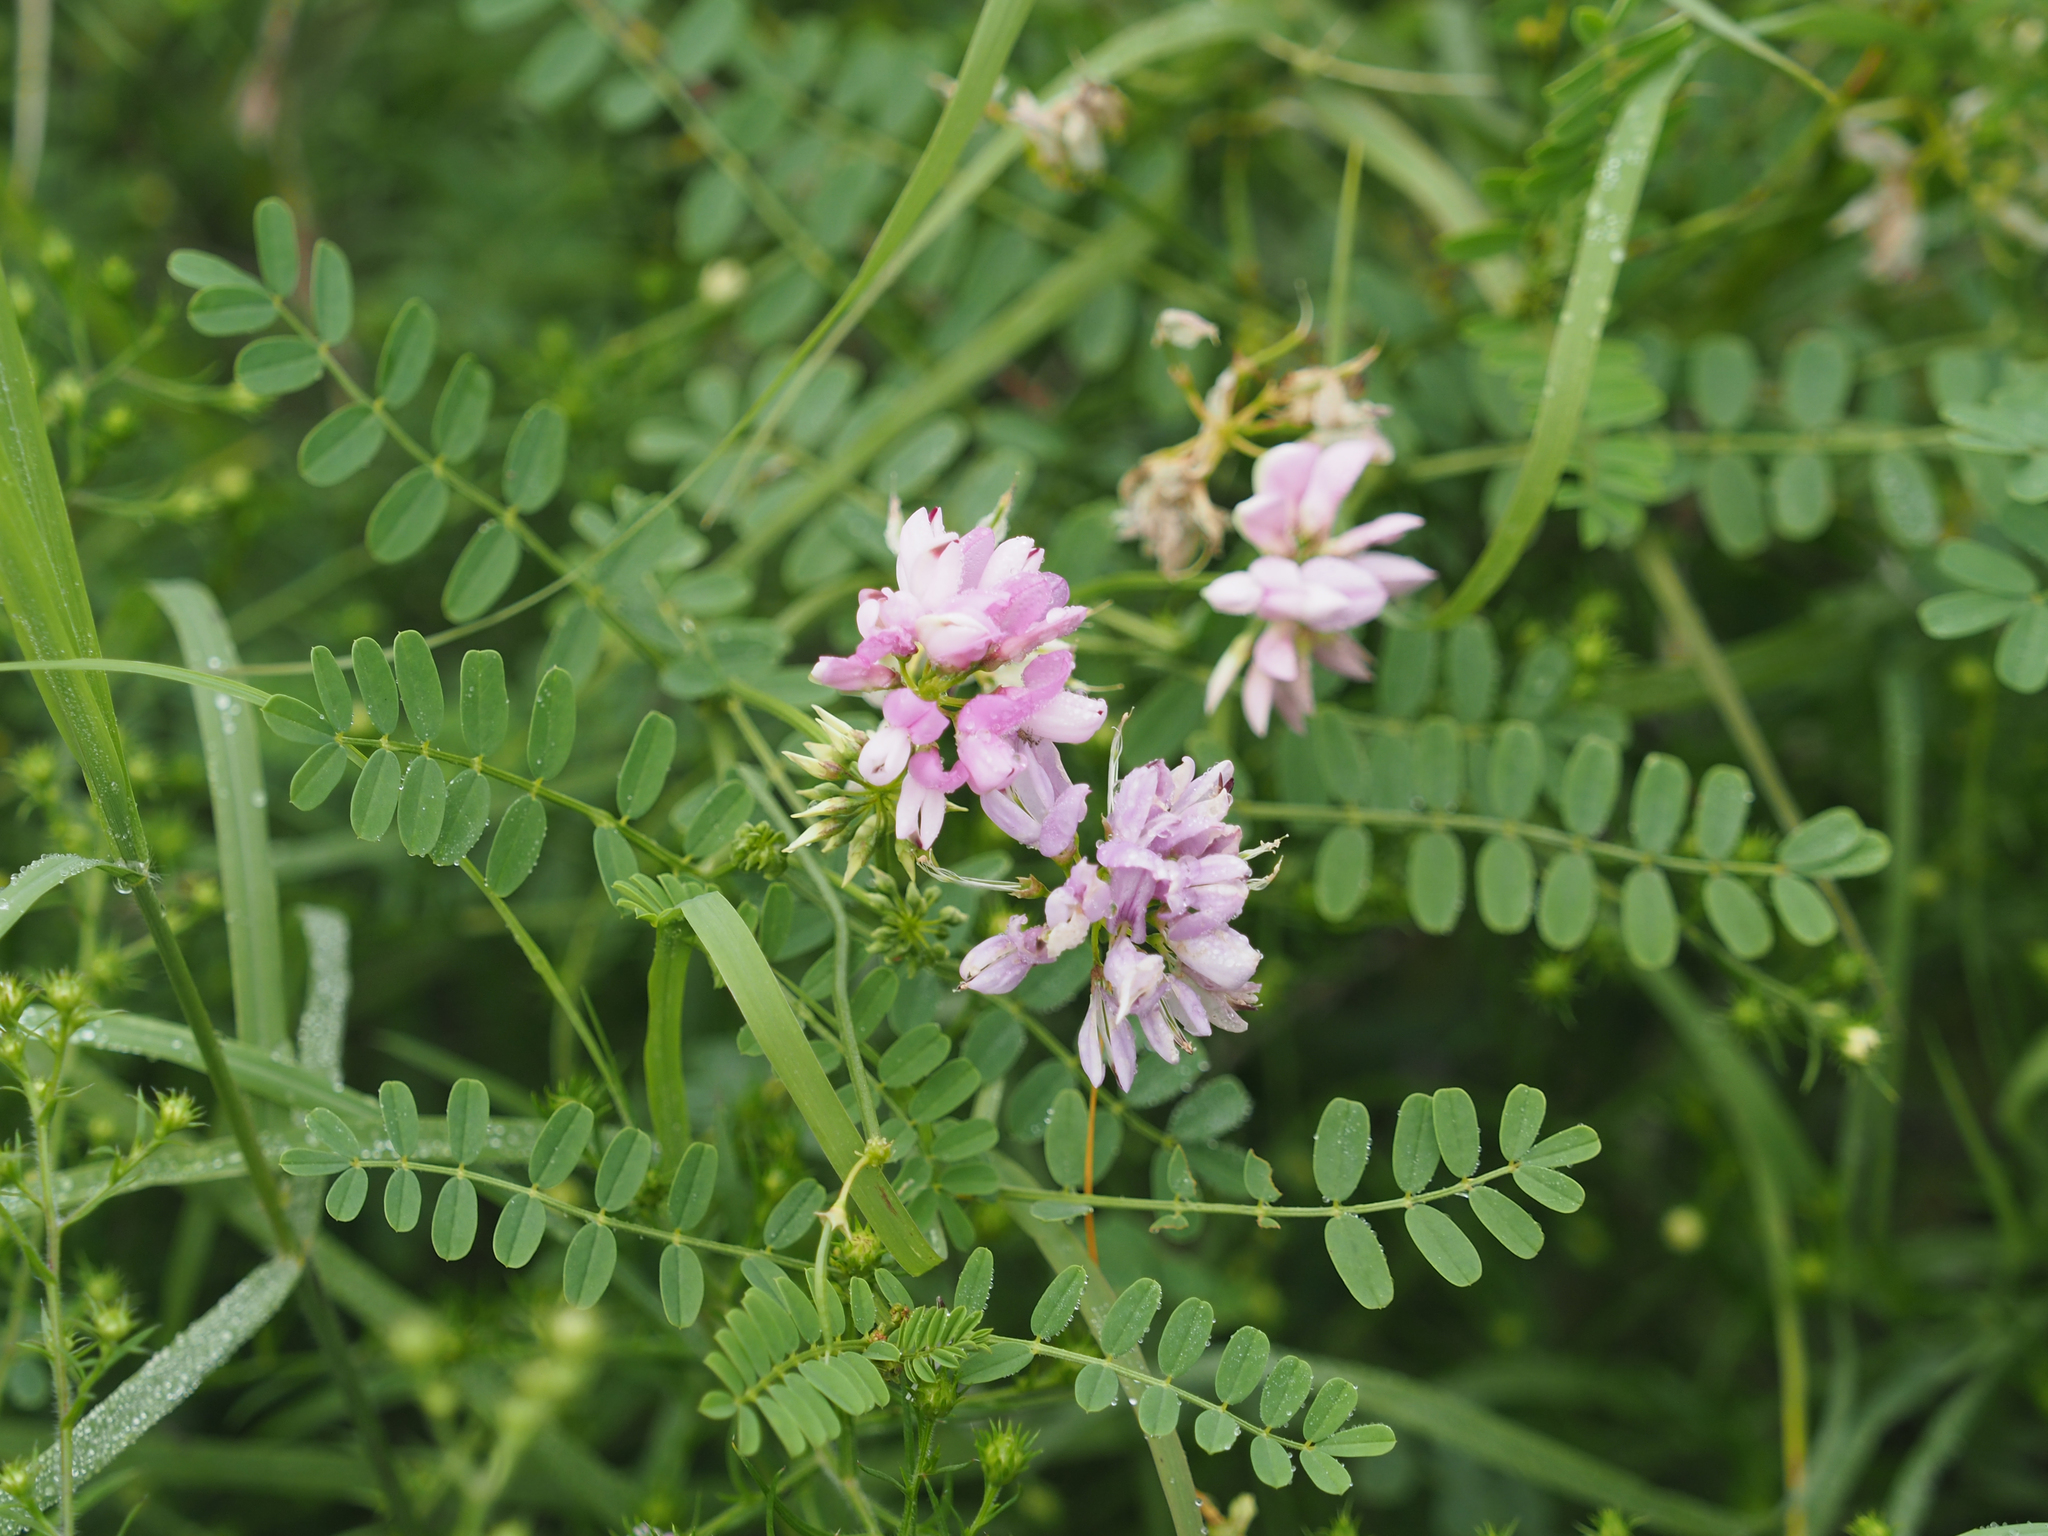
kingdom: Plantae
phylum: Tracheophyta
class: Magnoliopsida
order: Fabales
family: Fabaceae
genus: Coronilla
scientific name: Coronilla varia
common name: Crownvetch
